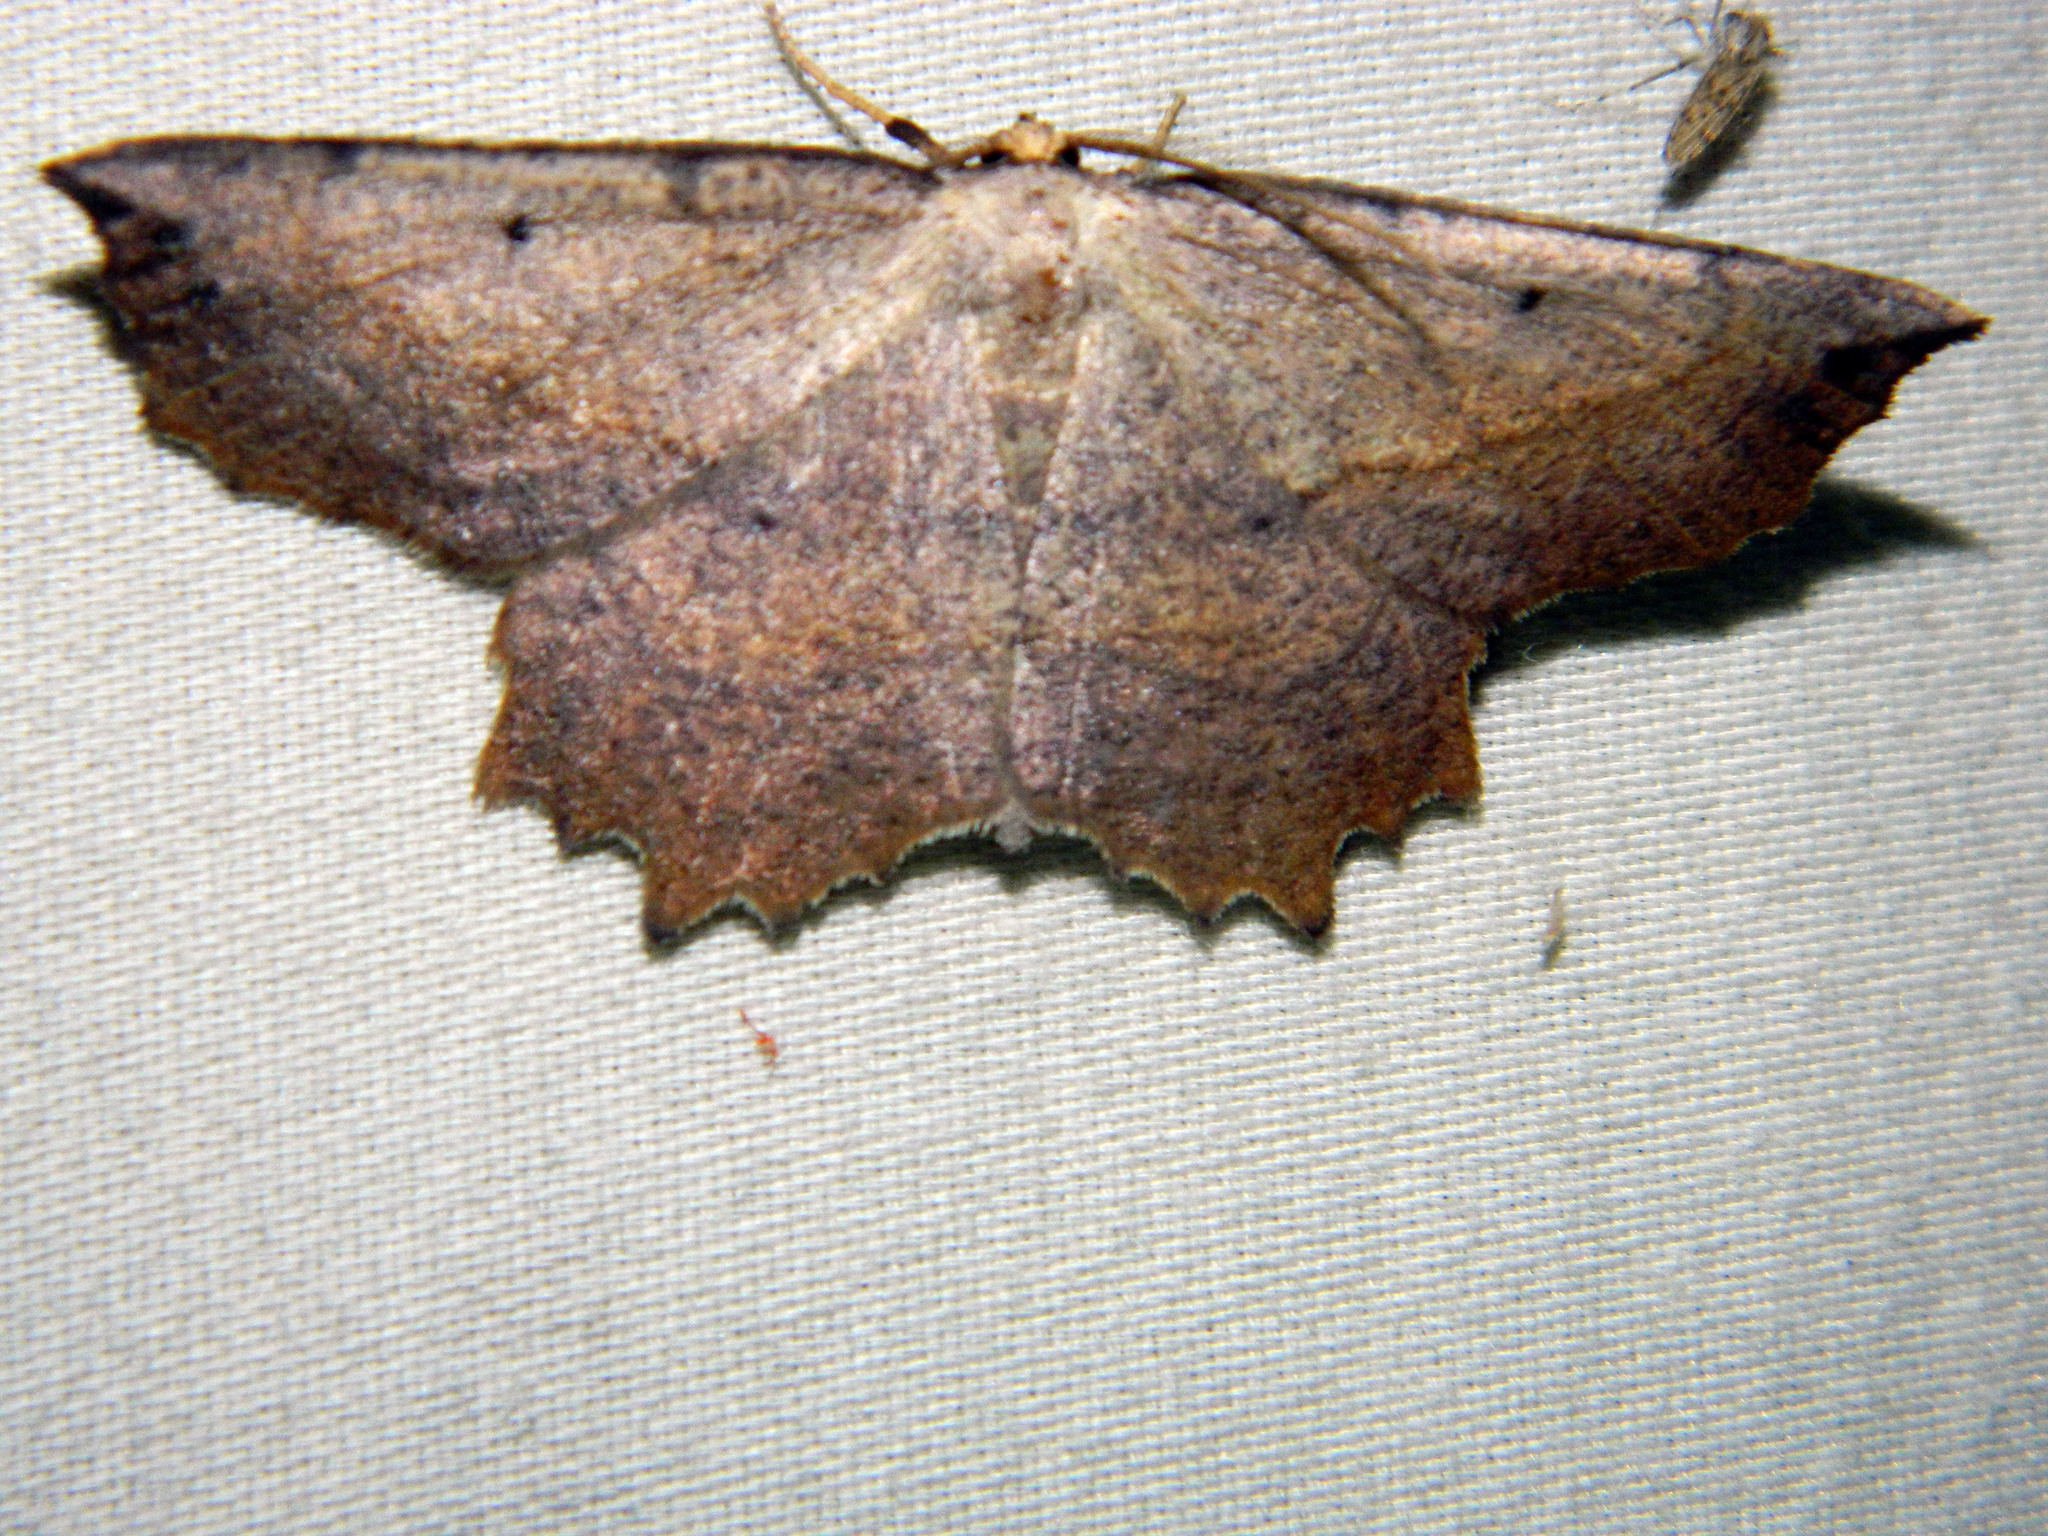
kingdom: Animalia
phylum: Arthropoda
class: Insecta
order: Lepidoptera
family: Geometridae
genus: Euchlaena
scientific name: Euchlaena muzaria
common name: Muzaria euchlaena
